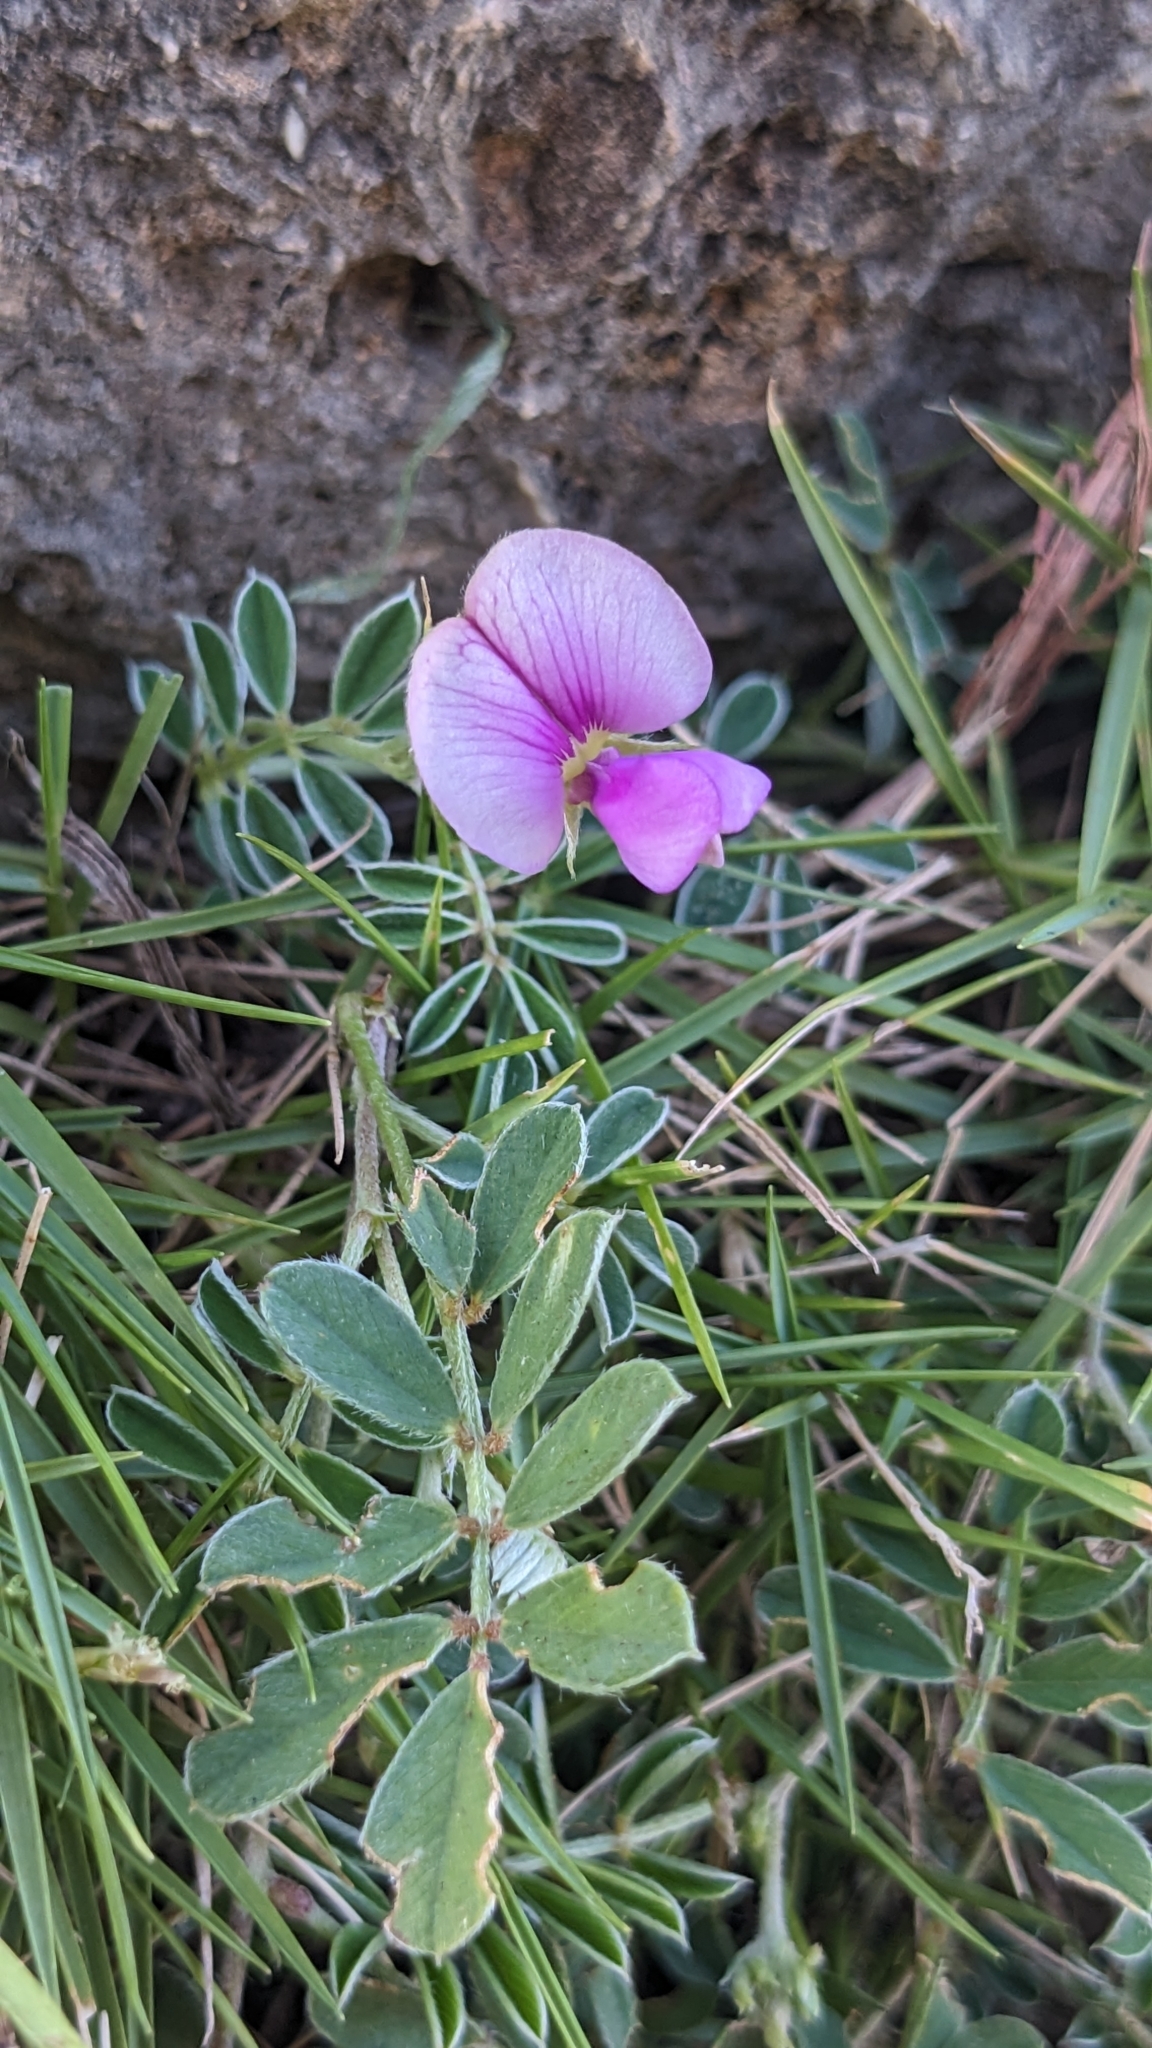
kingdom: Plantae
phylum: Tracheophyta
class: Magnoliopsida
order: Fabales
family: Fabaceae
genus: Tephrosia
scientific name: Tephrosia obovata
